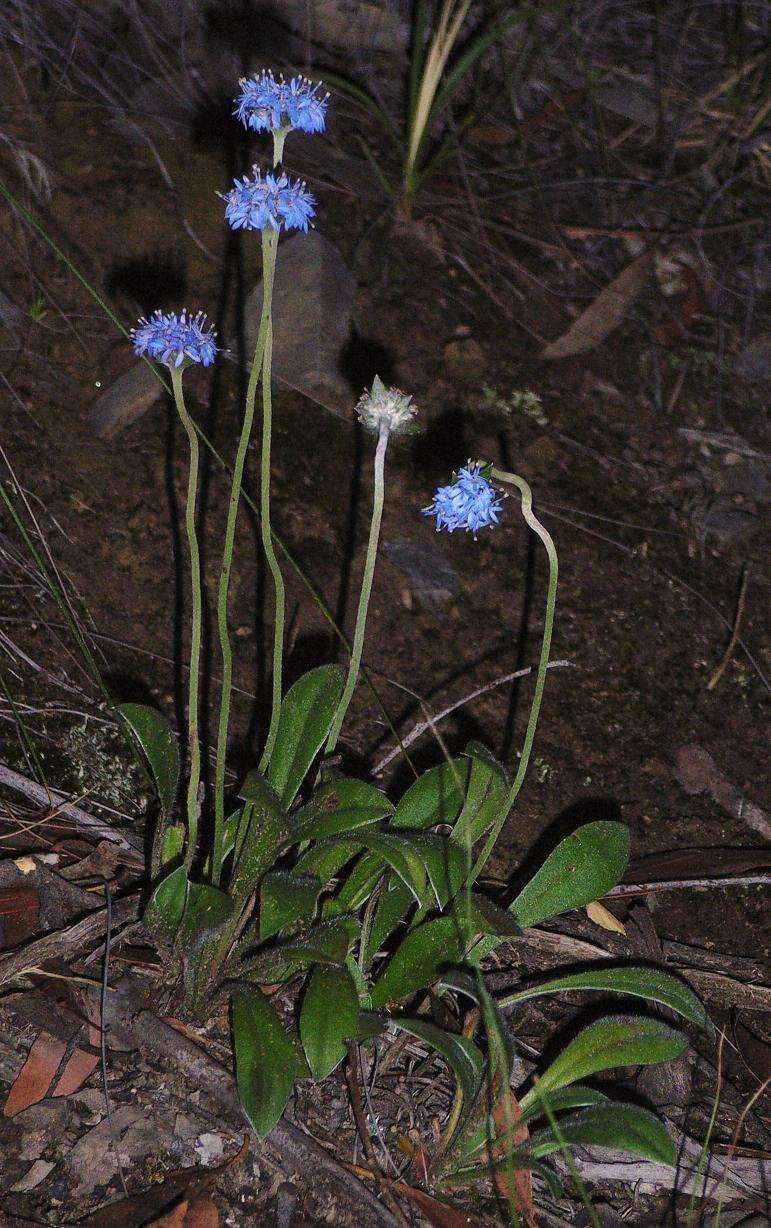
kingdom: Plantae
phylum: Tracheophyta
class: Magnoliopsida
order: Asterales
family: Goodeniaceae
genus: Brunonia
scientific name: Brunonia australis
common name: Blue pincushion
